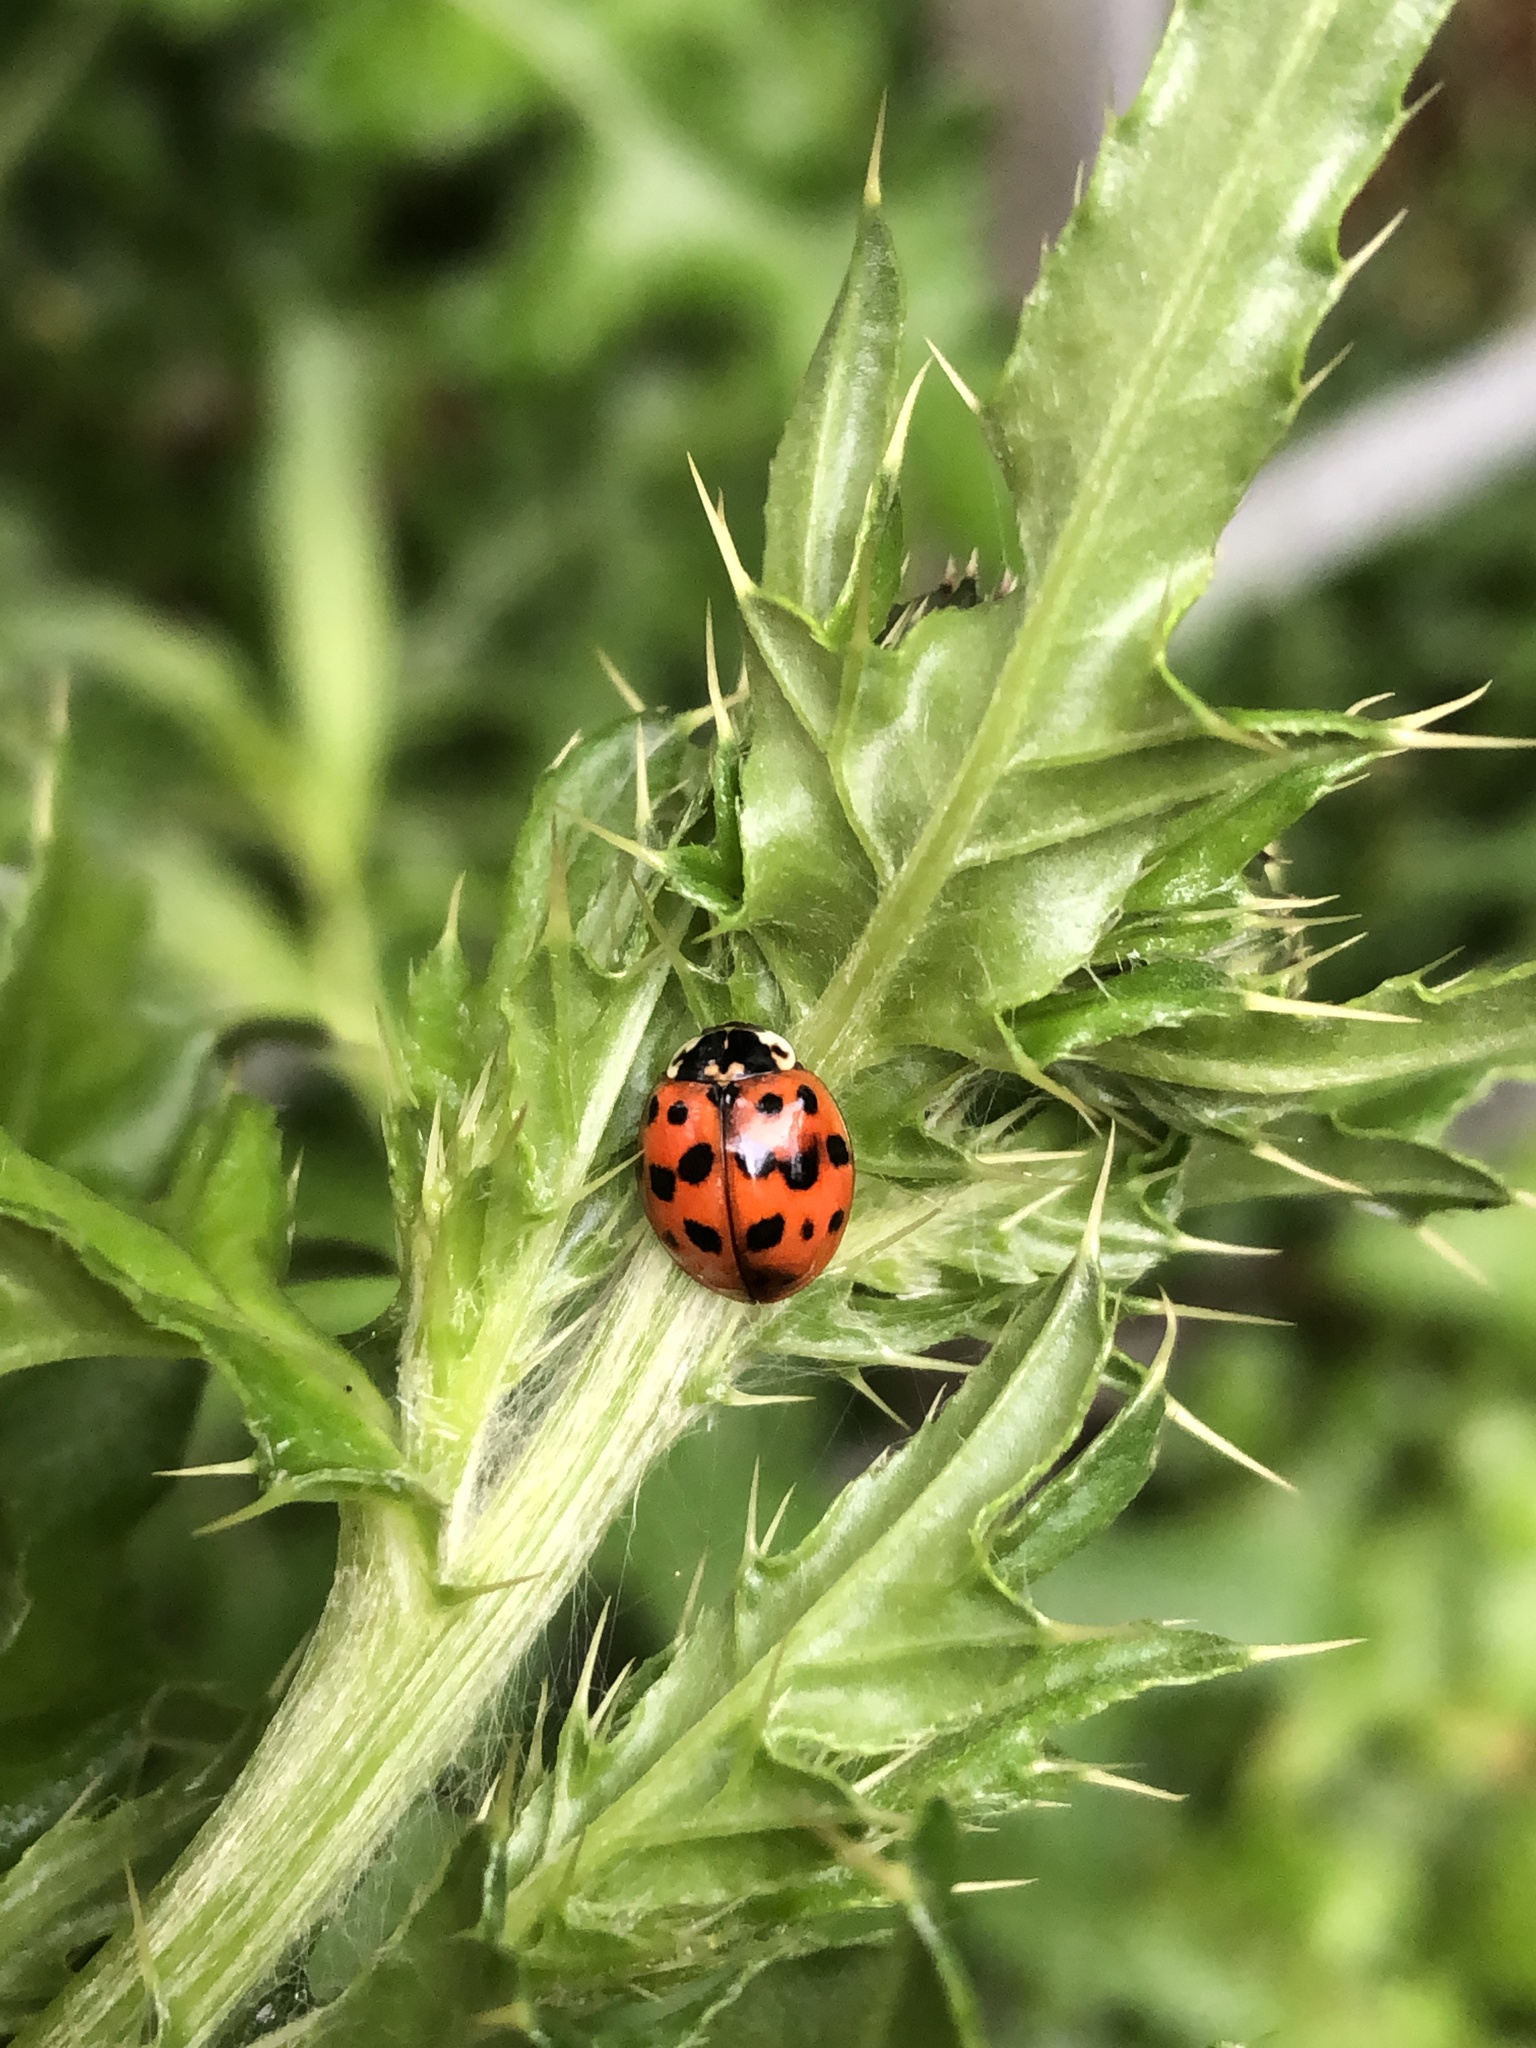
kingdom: Animalia
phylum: Arthropoda
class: Insecta
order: Coleoptera
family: Coccinellidae
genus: Harmonia
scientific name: Harmonia axyridis
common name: Harlequin ladybird
